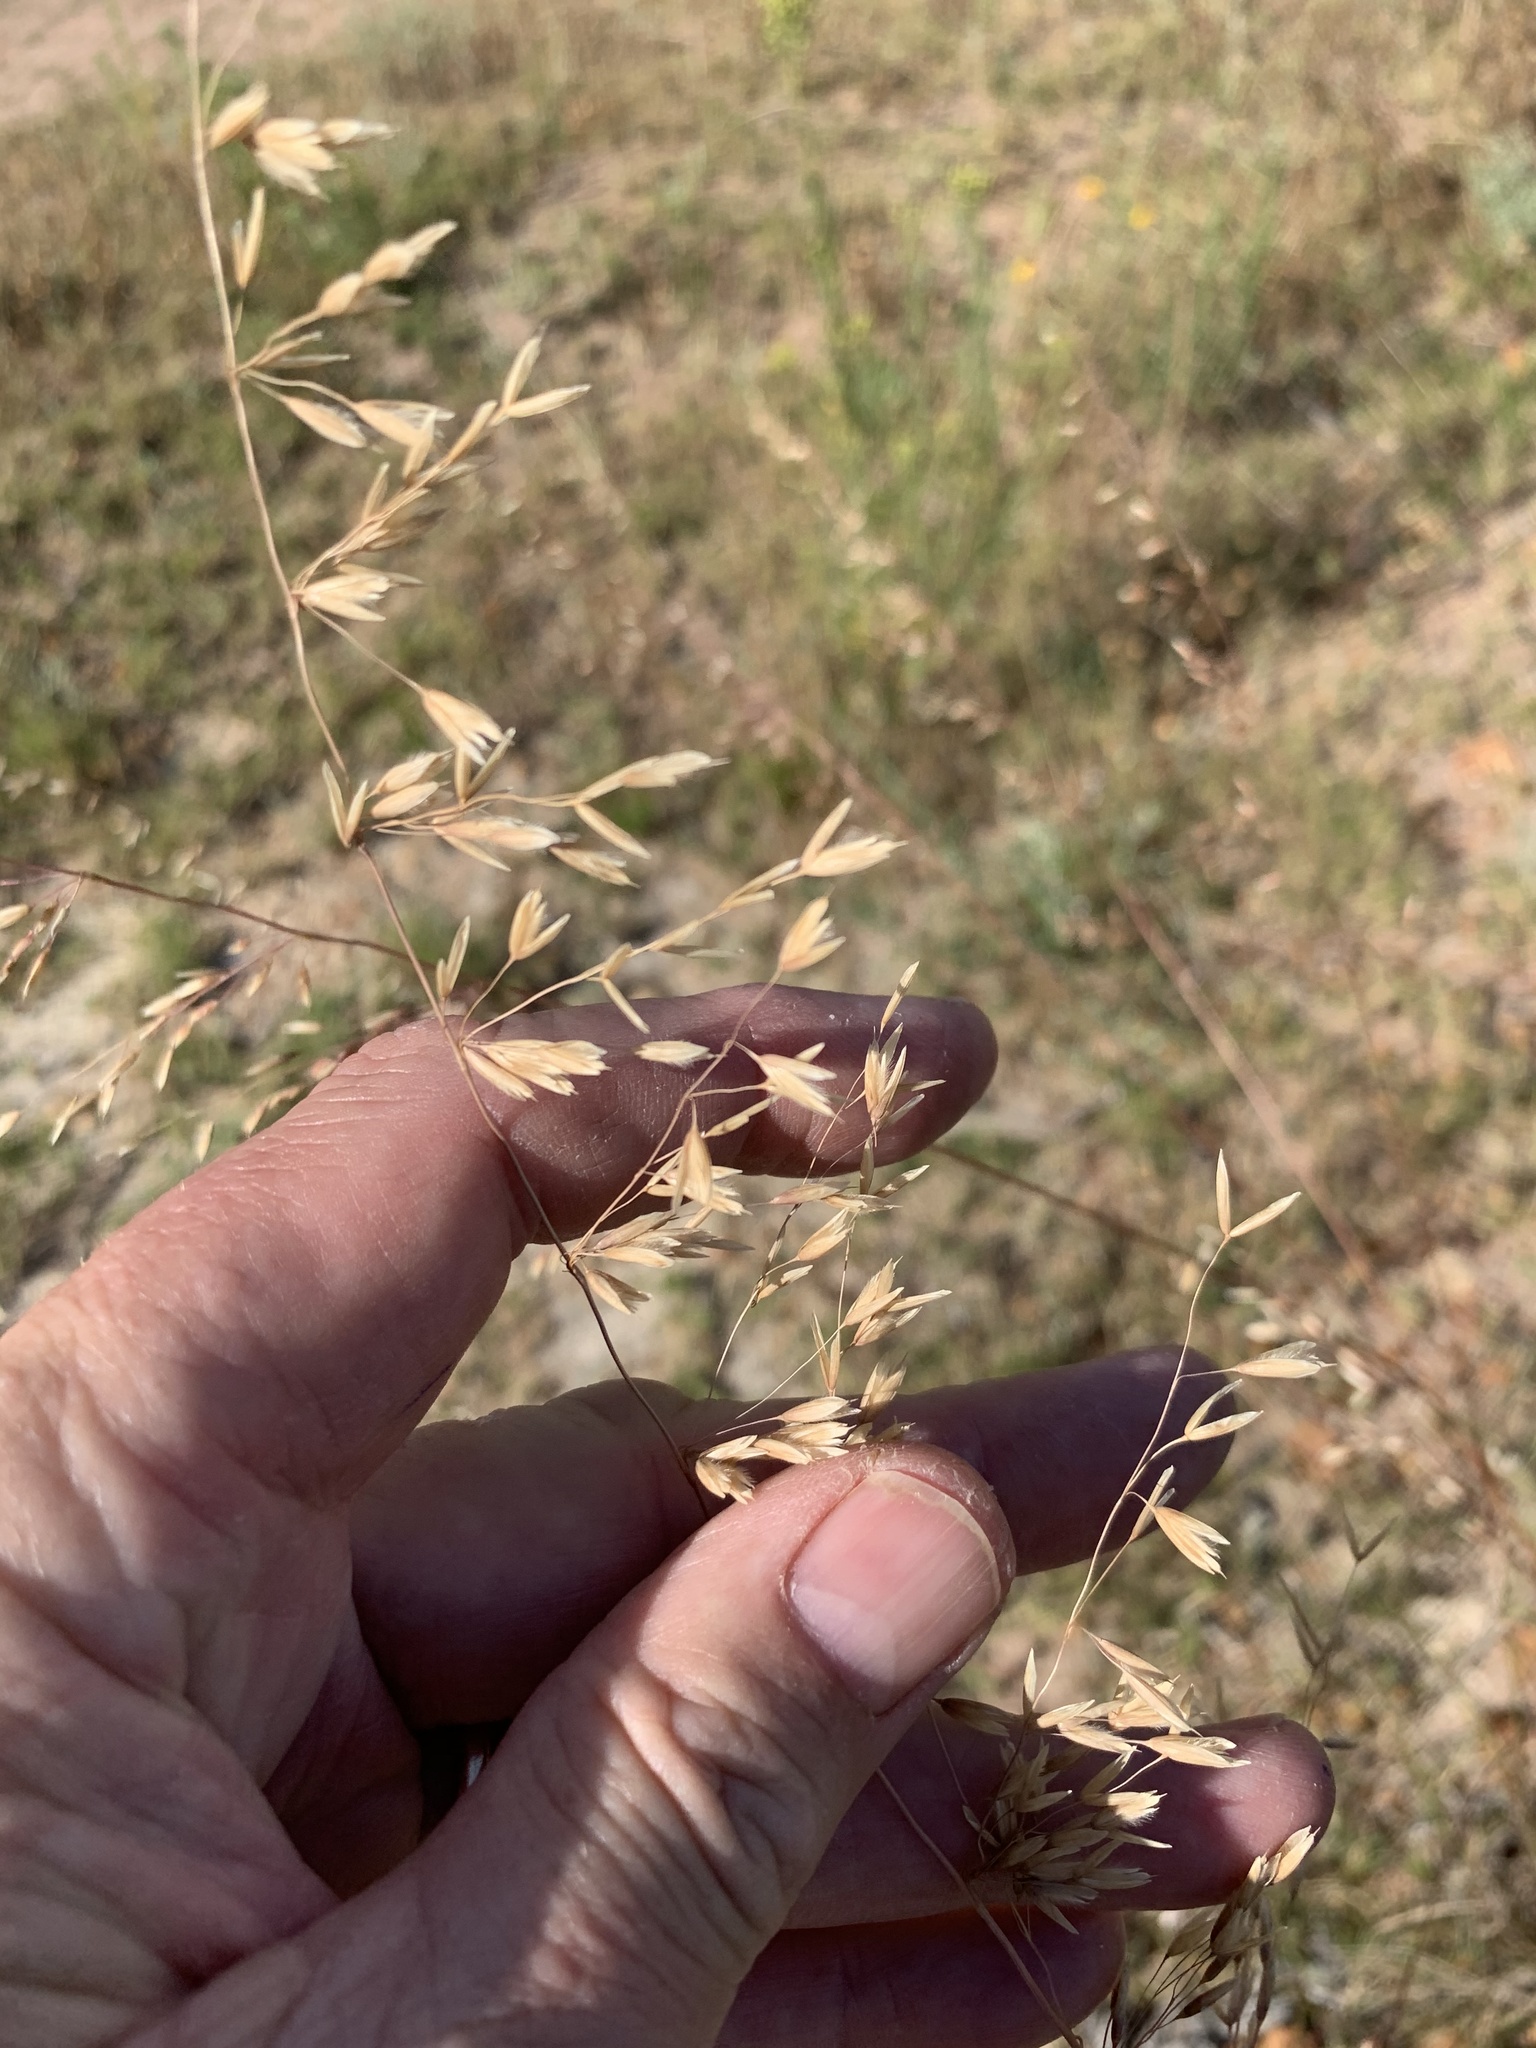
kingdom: Plantae
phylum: Tracheophyta
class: Liliopsida
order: Poales
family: Poaceae
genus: Ehrharta
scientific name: Ehrharta calycina
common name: Perennial veldtgrass
